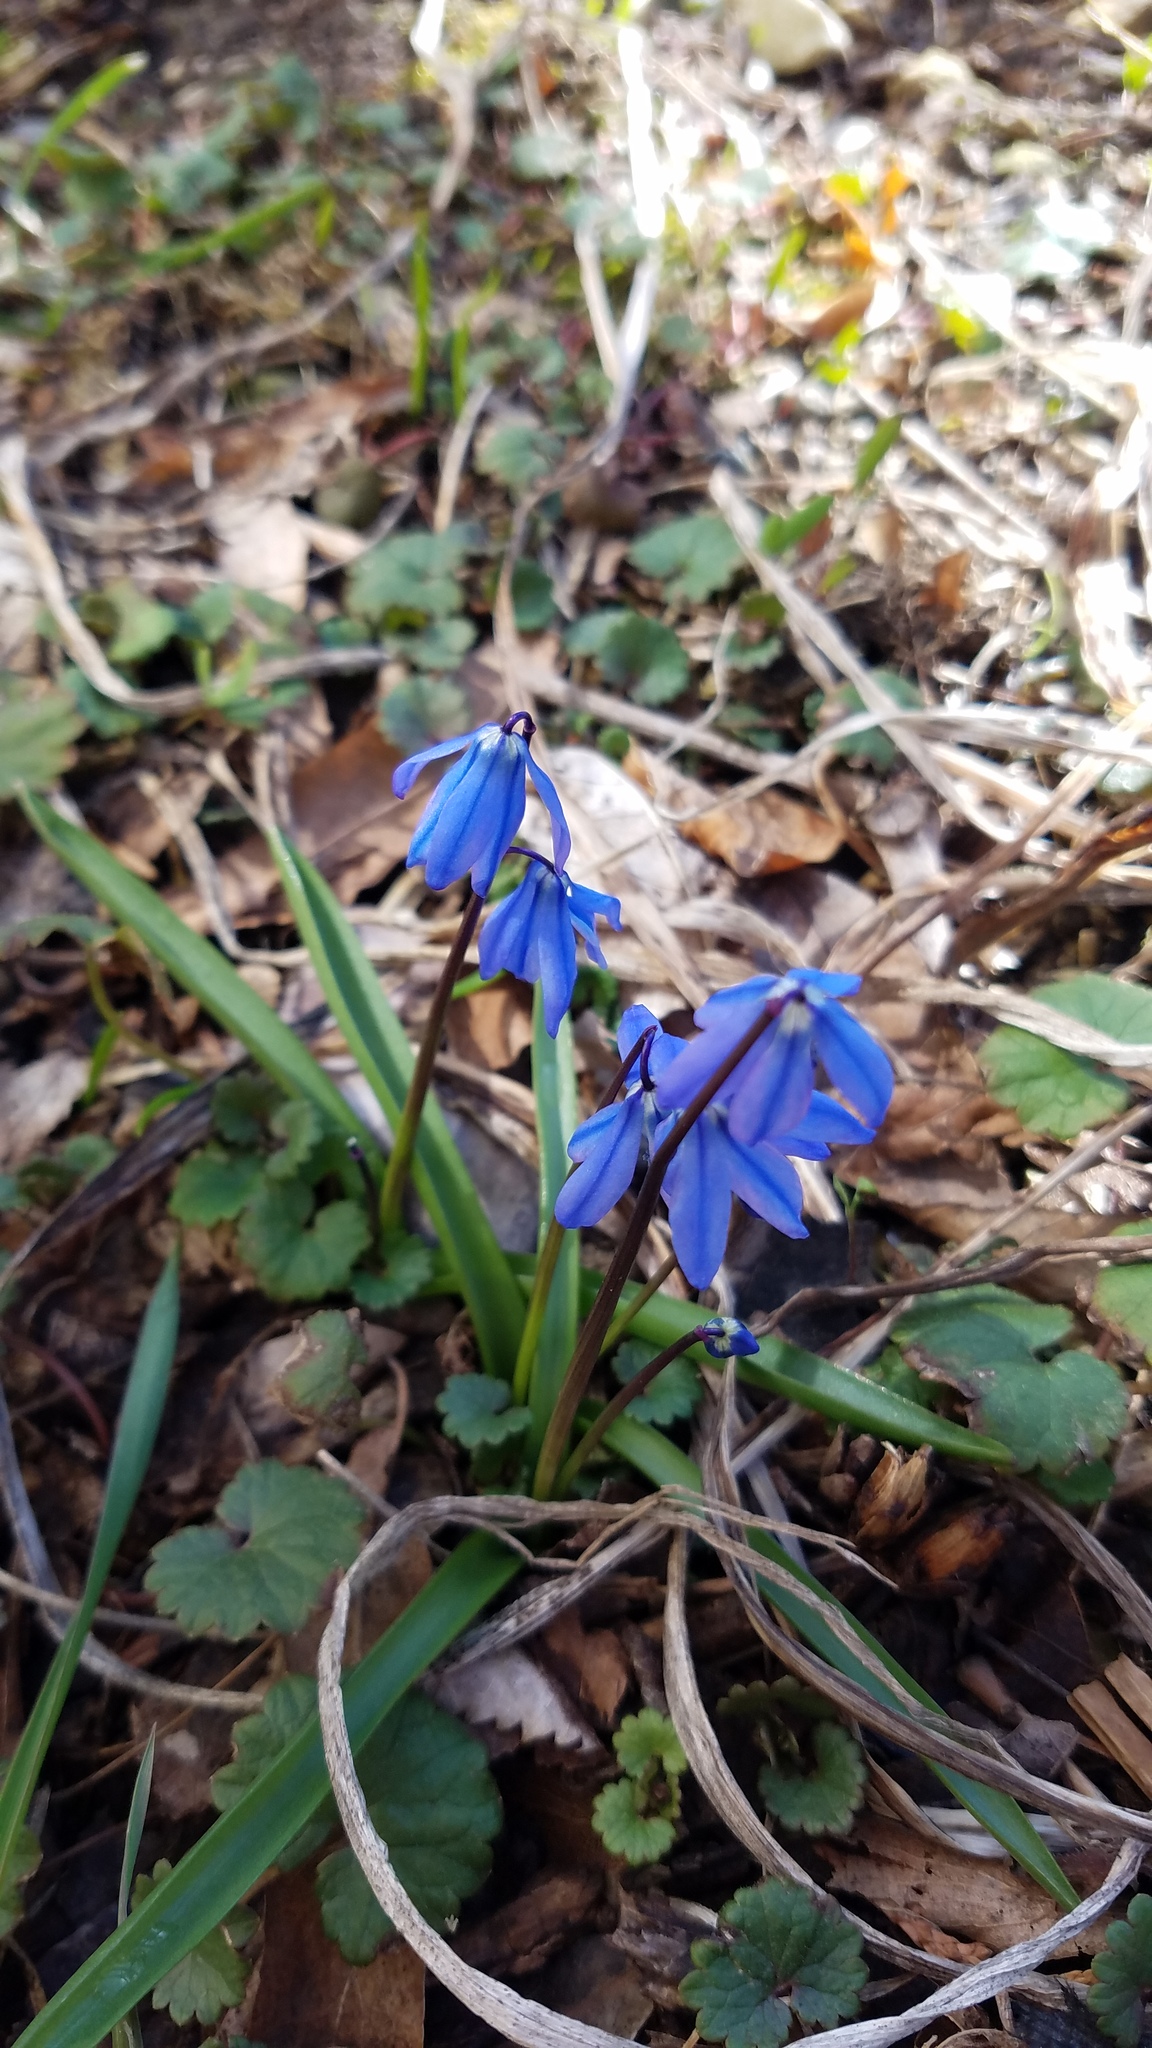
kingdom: Plantae
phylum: Tracheophyta
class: Liliopsida
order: Asparagales
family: Asparagaceae
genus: Scilla
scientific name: Scilla siberica
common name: Siberian squill
